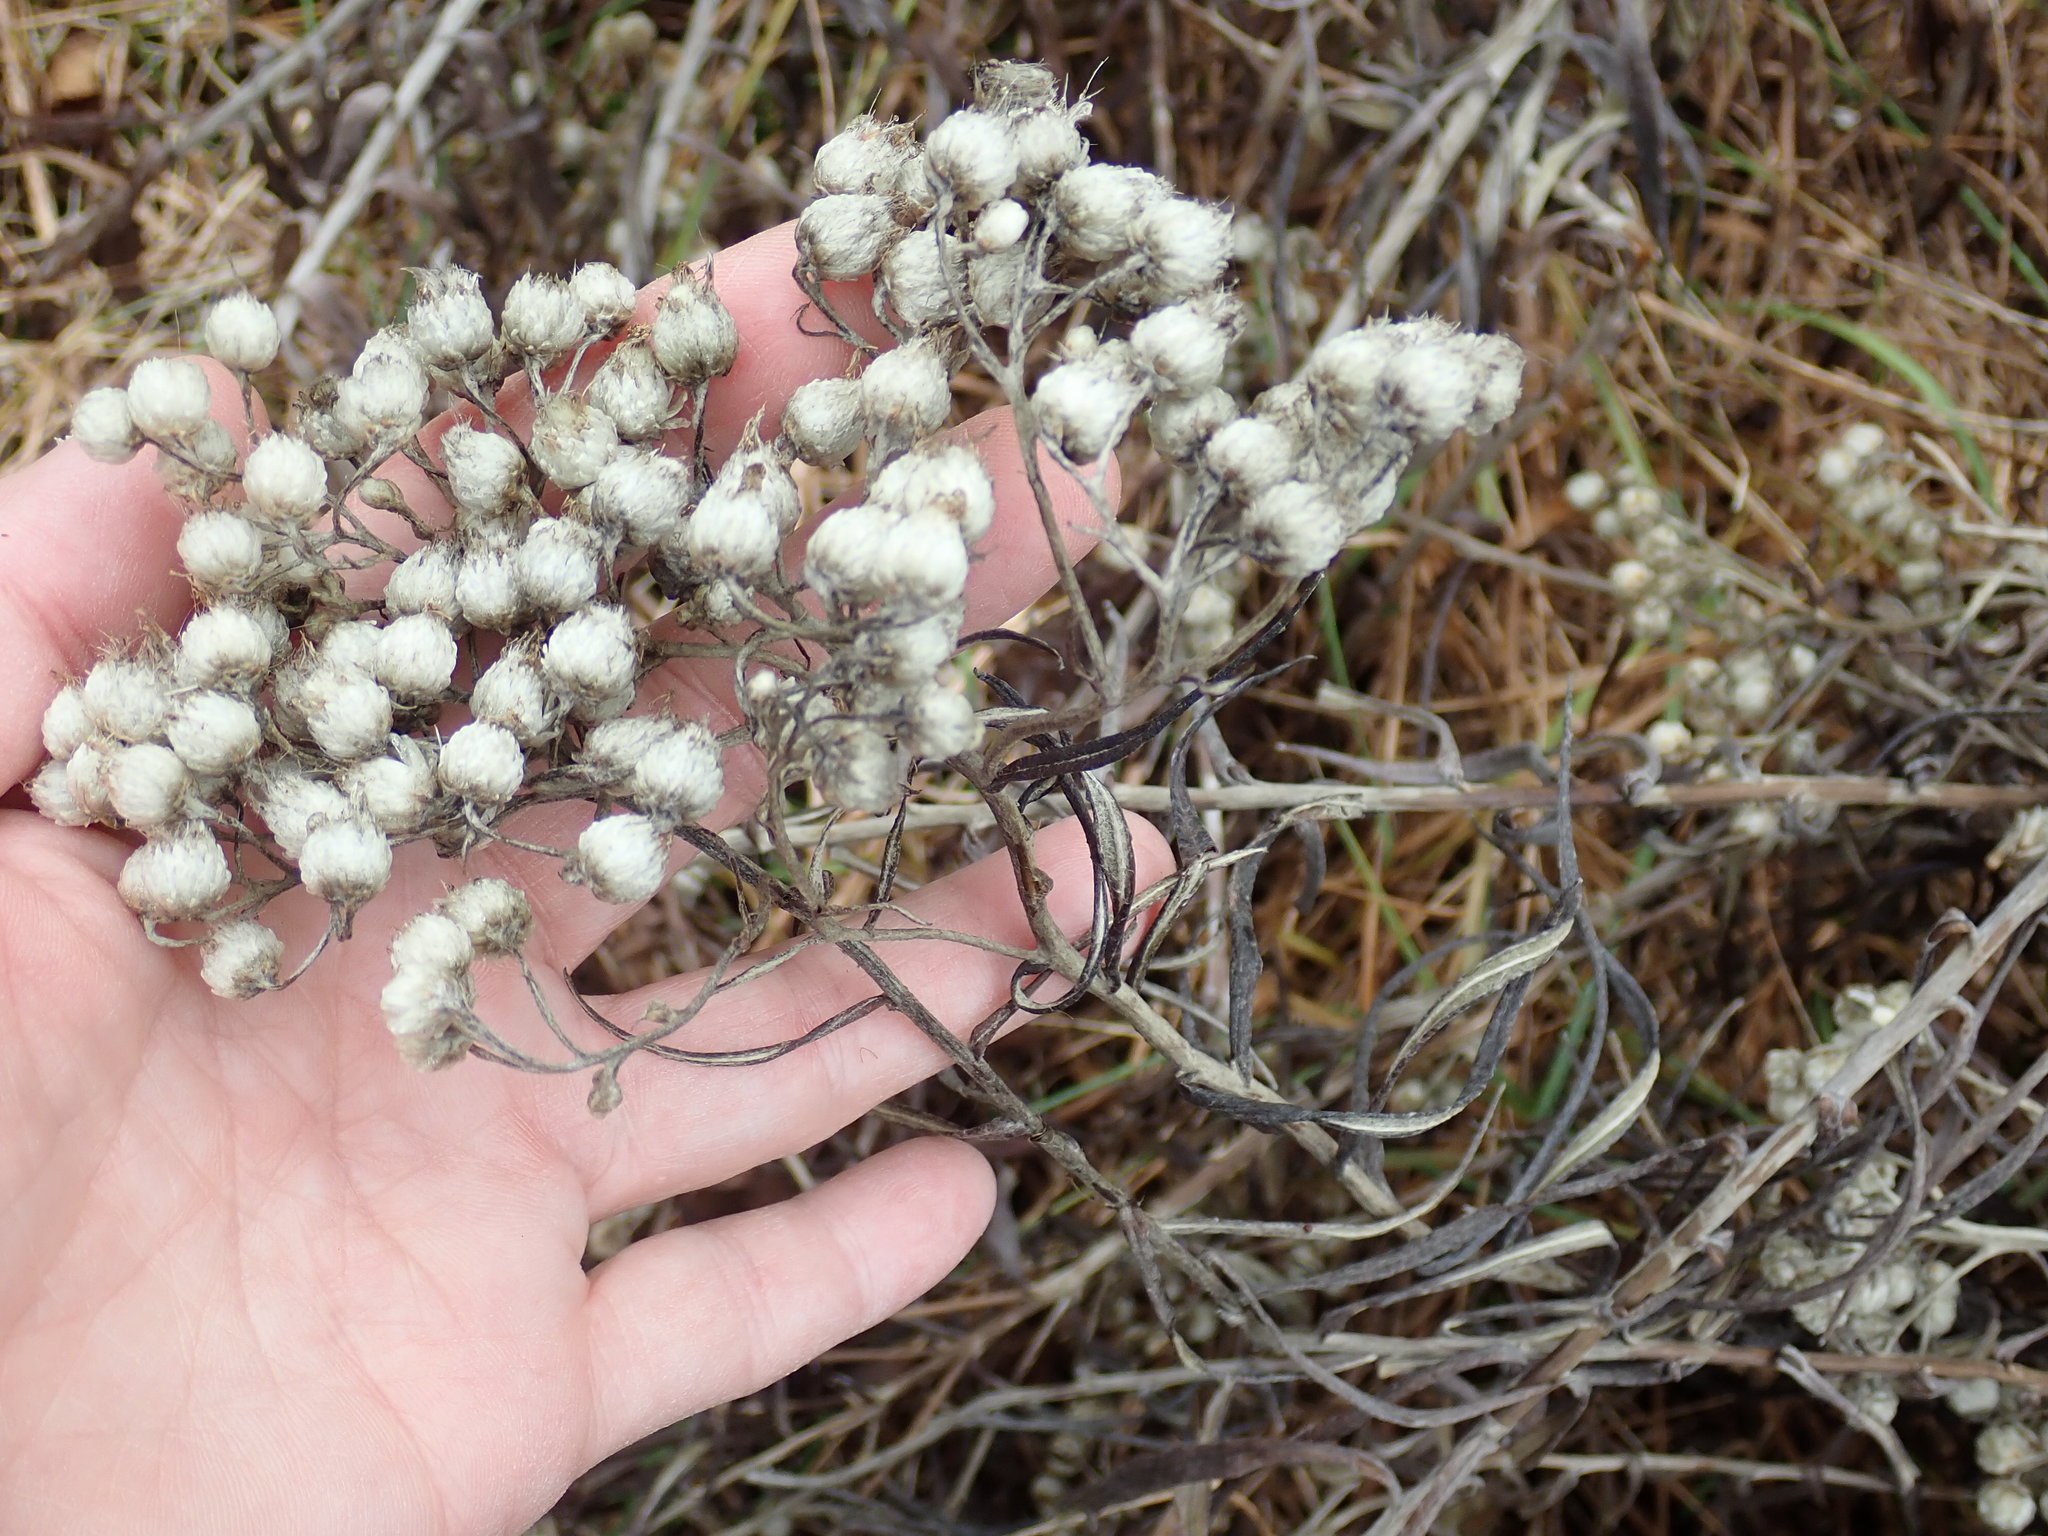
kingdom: Plantae
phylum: Tracheophyta
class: Magnoliopsida
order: Asterales
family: Asteraceae
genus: Anaphalis
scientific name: Anaphalis margaritacea
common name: Pearly everlasting
